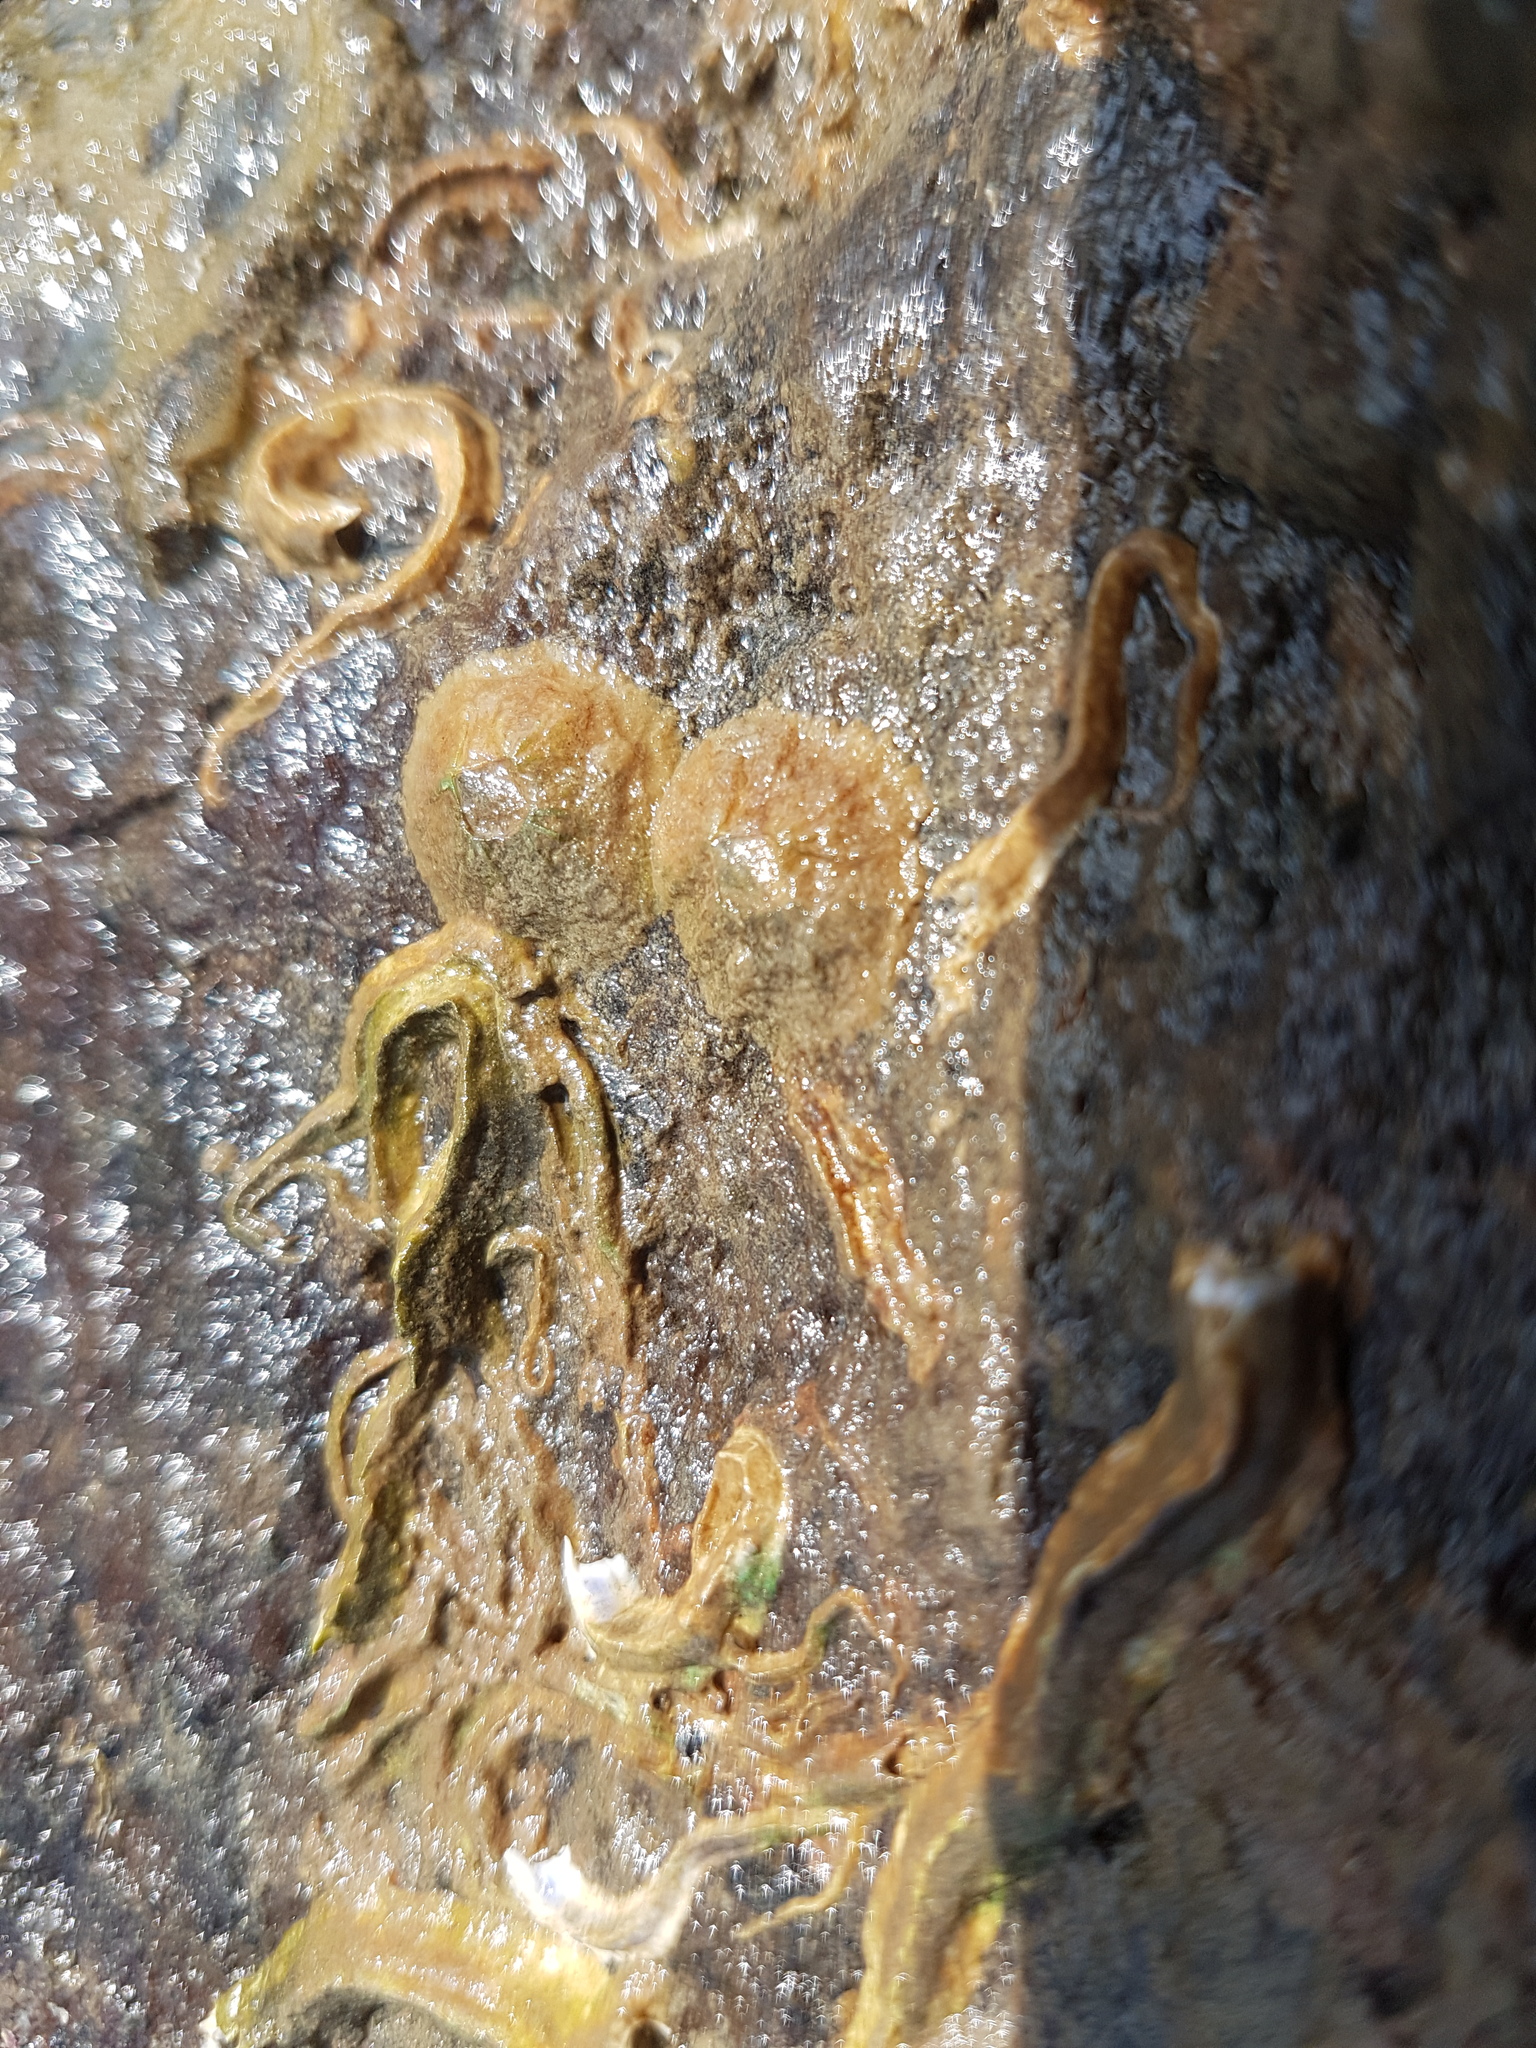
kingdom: Animalia
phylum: Arthropoda
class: Maxillopoda
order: Sessilia
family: Tetraclitidae
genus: Tetraclitella
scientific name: Tetraclitella depressa
